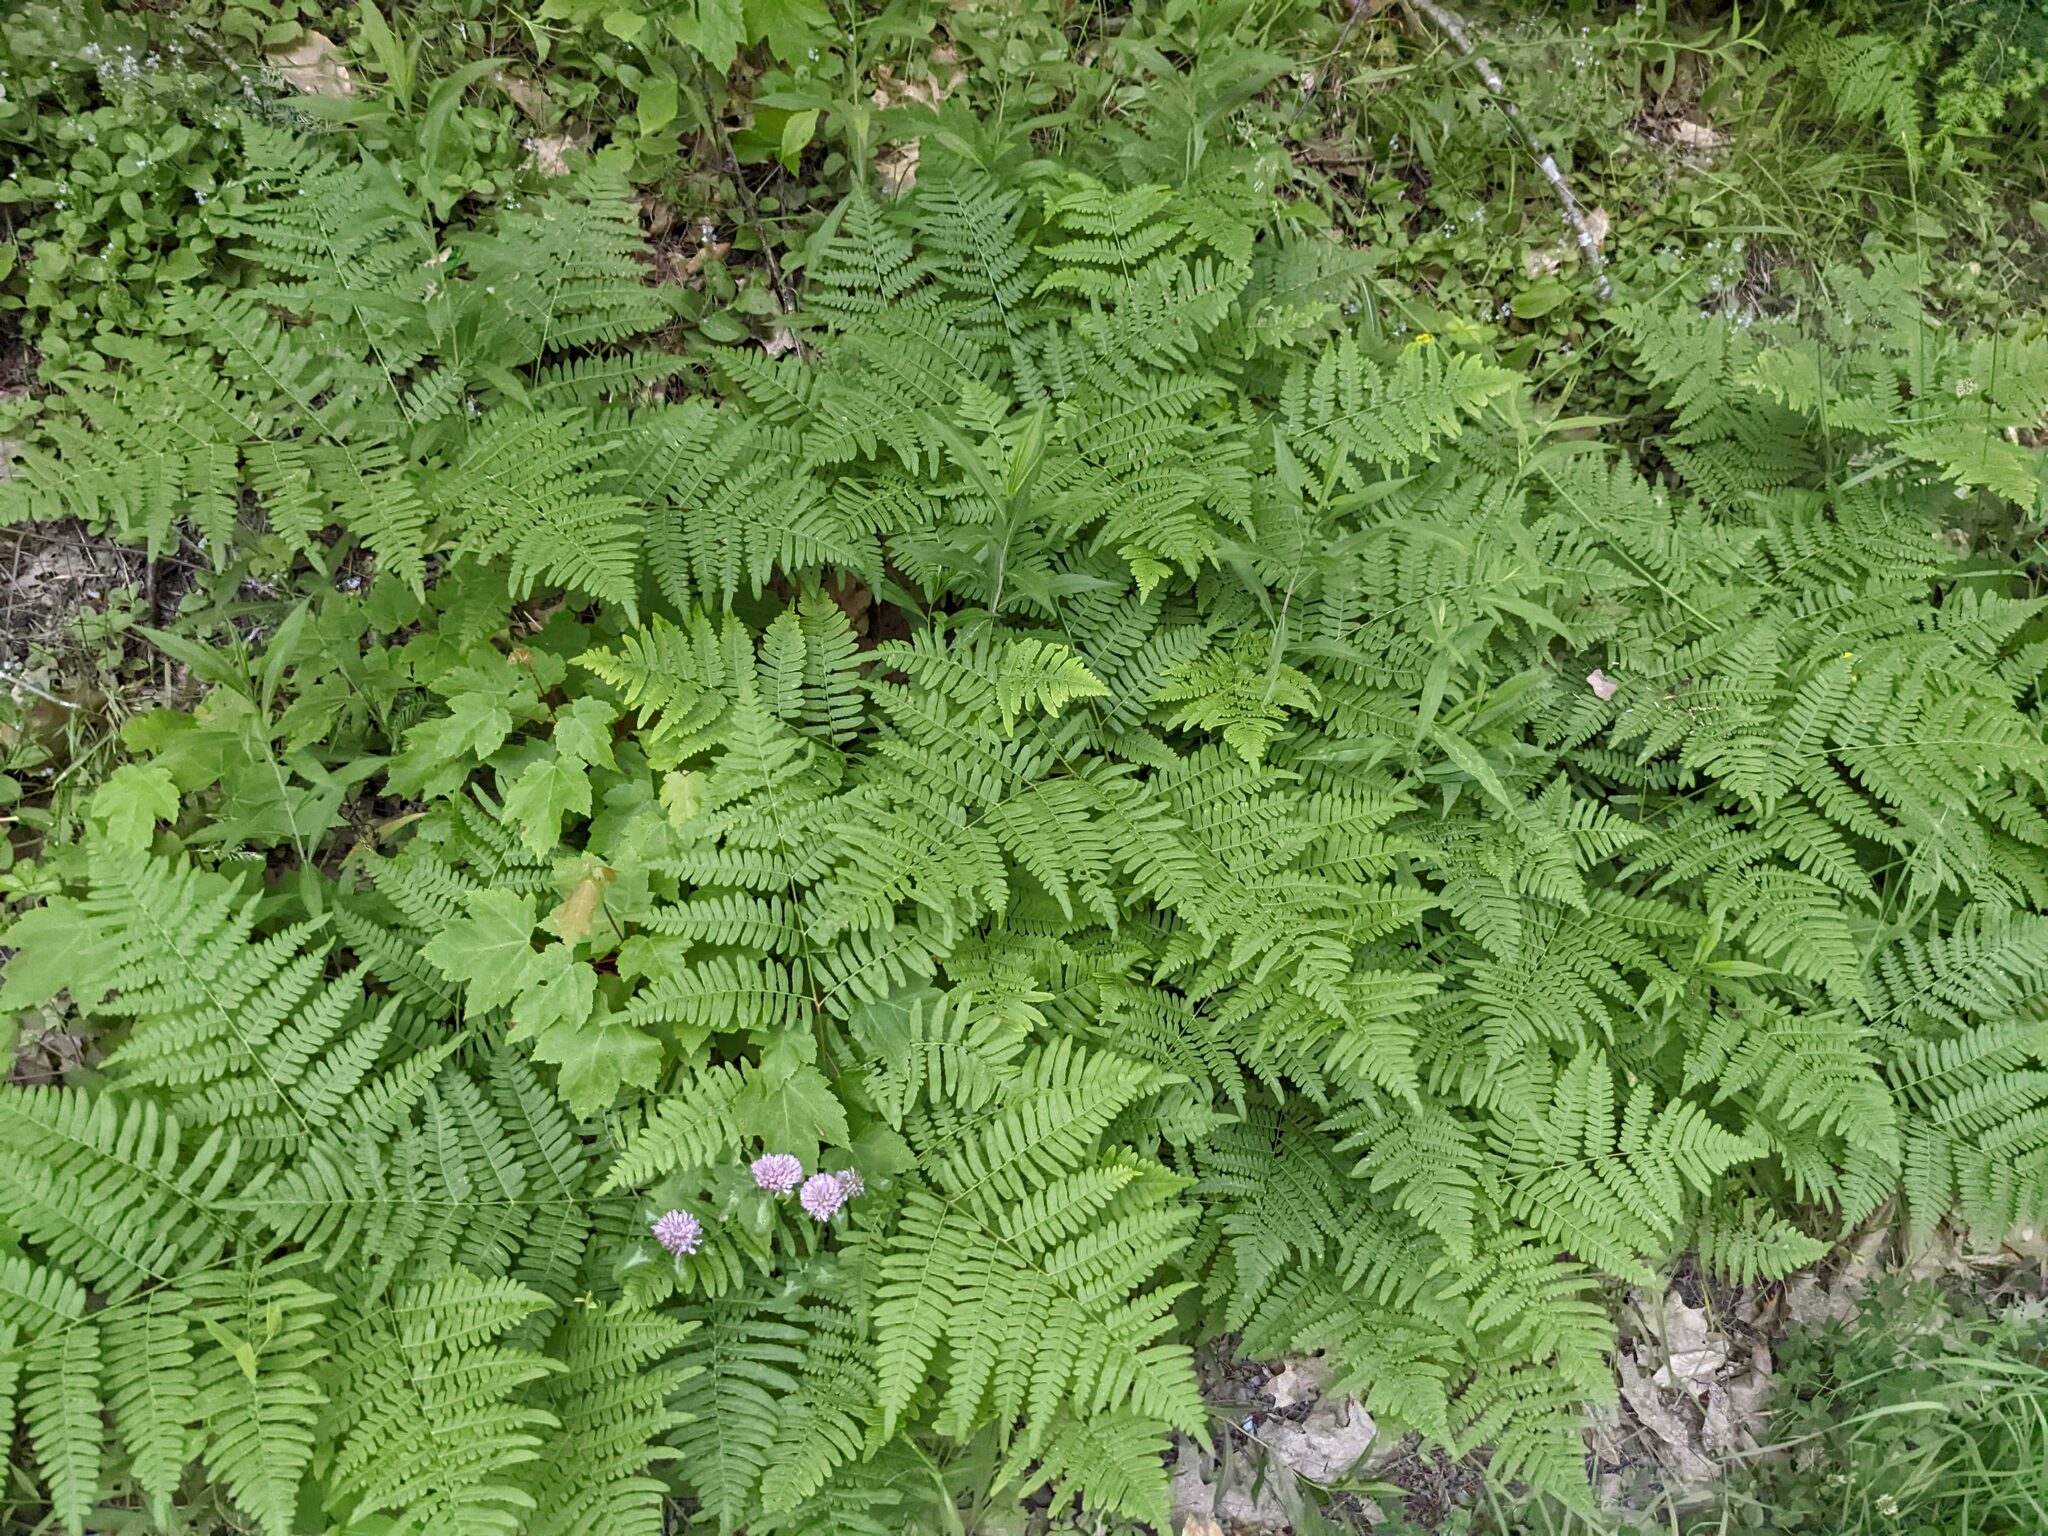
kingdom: Plantae
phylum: Tracheophyta
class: Polypodiopsida
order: Polypodiales
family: Dennstaedtiaceae
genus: Pteridium
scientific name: Pteridium aquilinum
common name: Bracken
